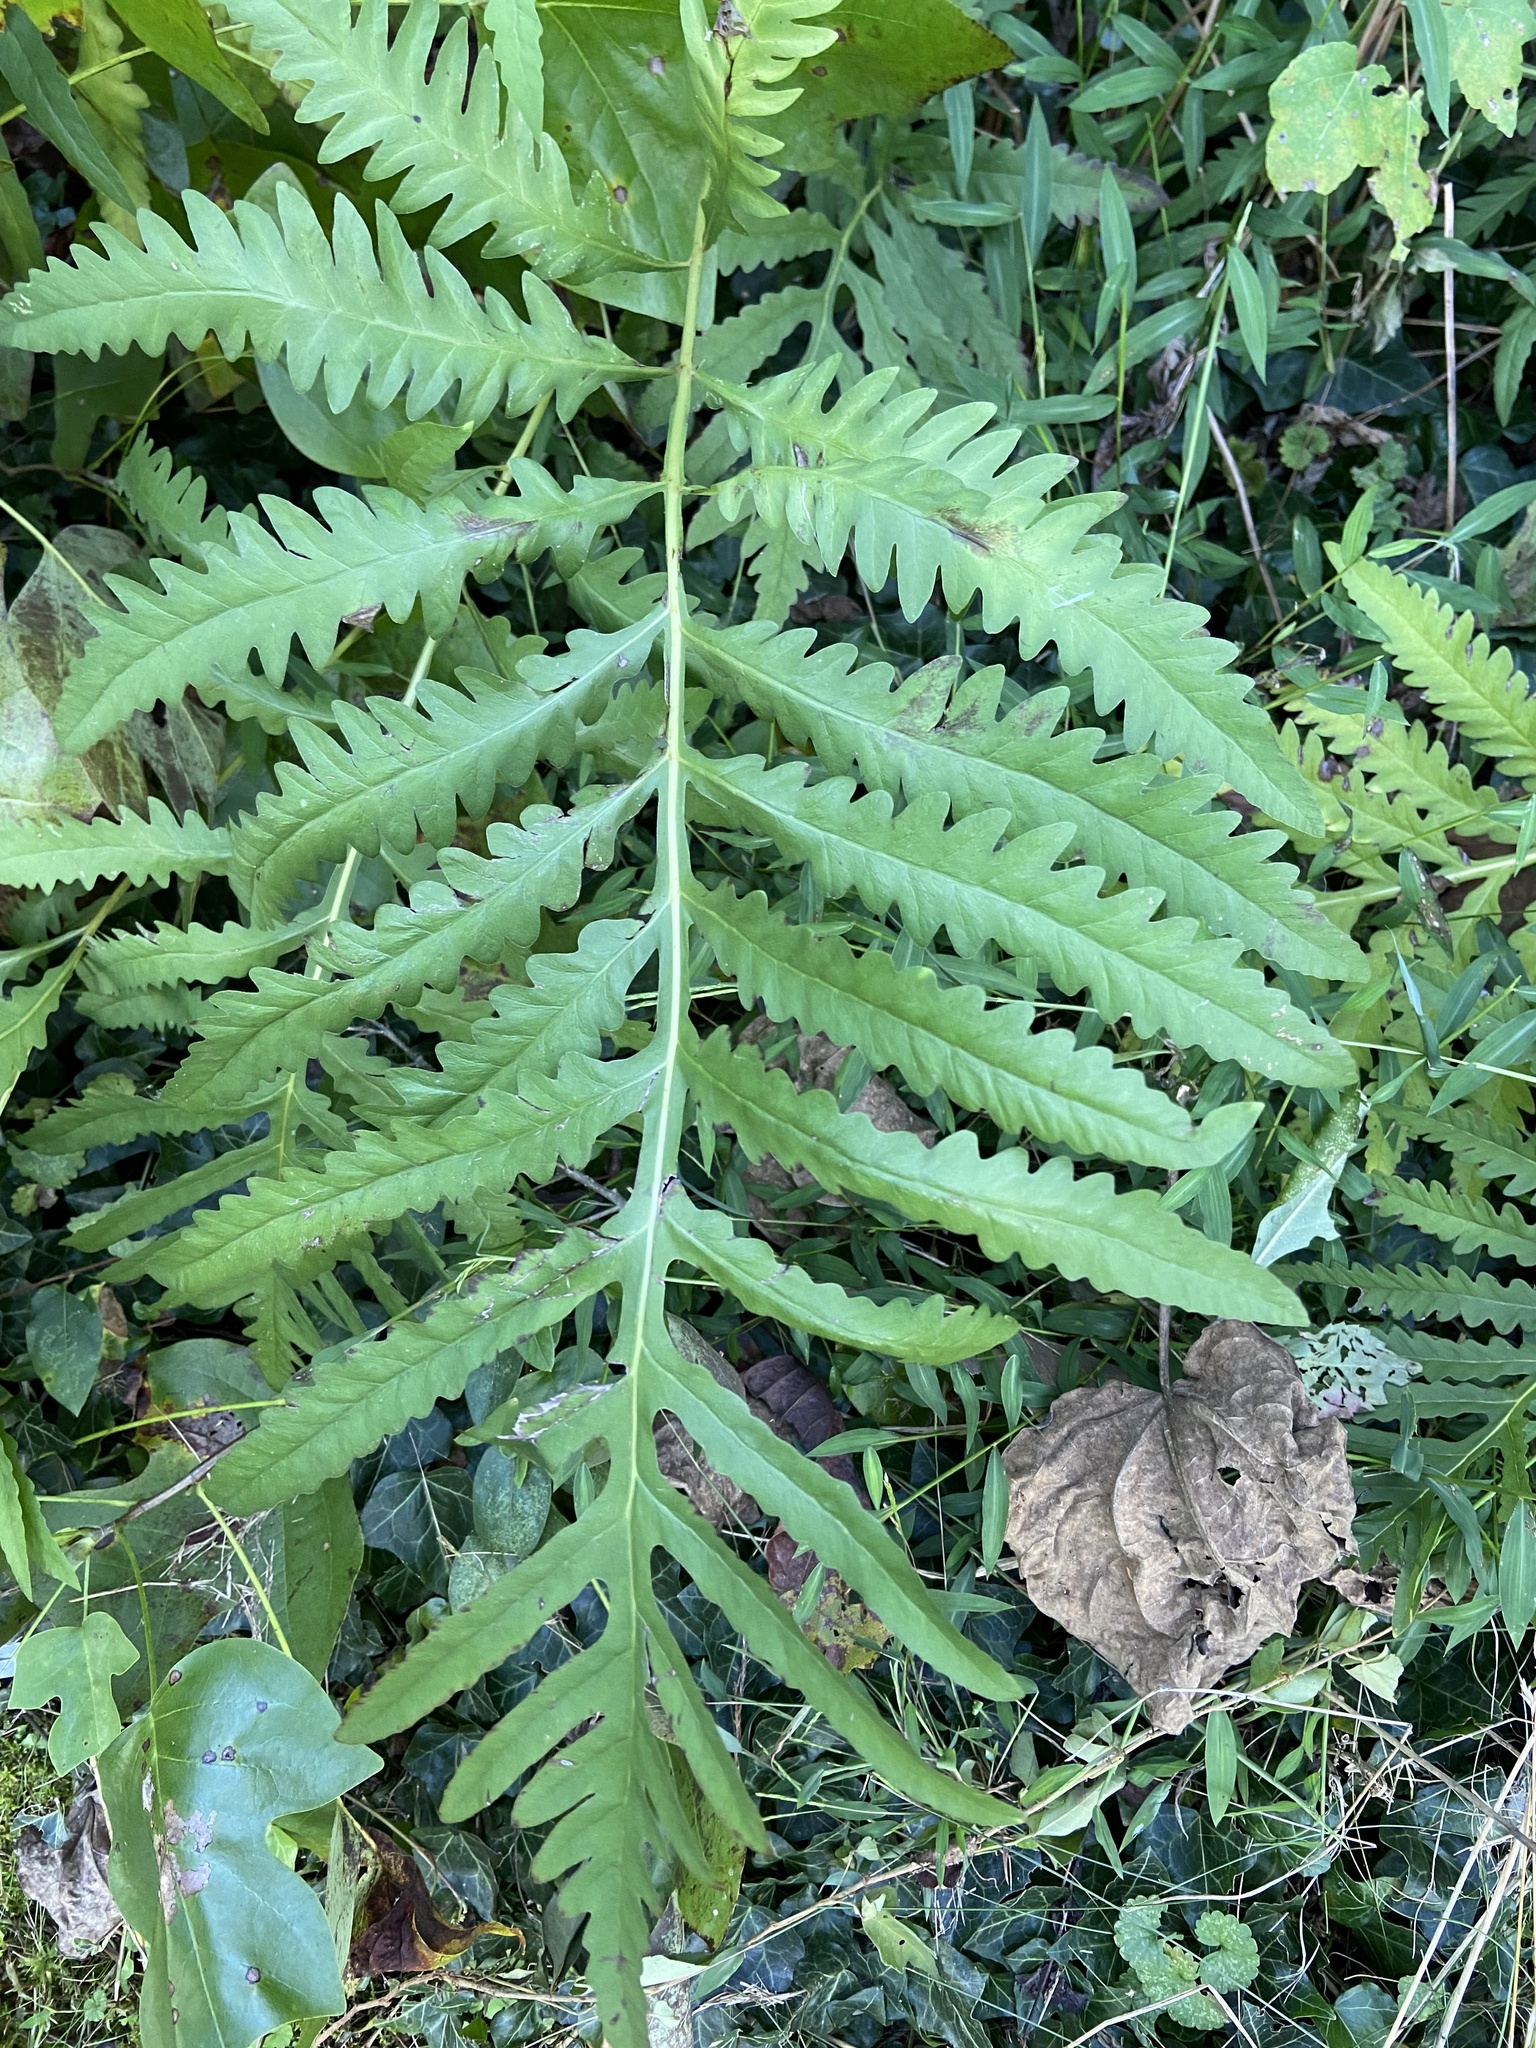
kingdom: Plantae
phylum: Tracheophyta
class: Polypodiopsida
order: Polypodiales
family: Onocleaceae
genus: Onoclea
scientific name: Onoclea sensibilis
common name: Sensitive fern
